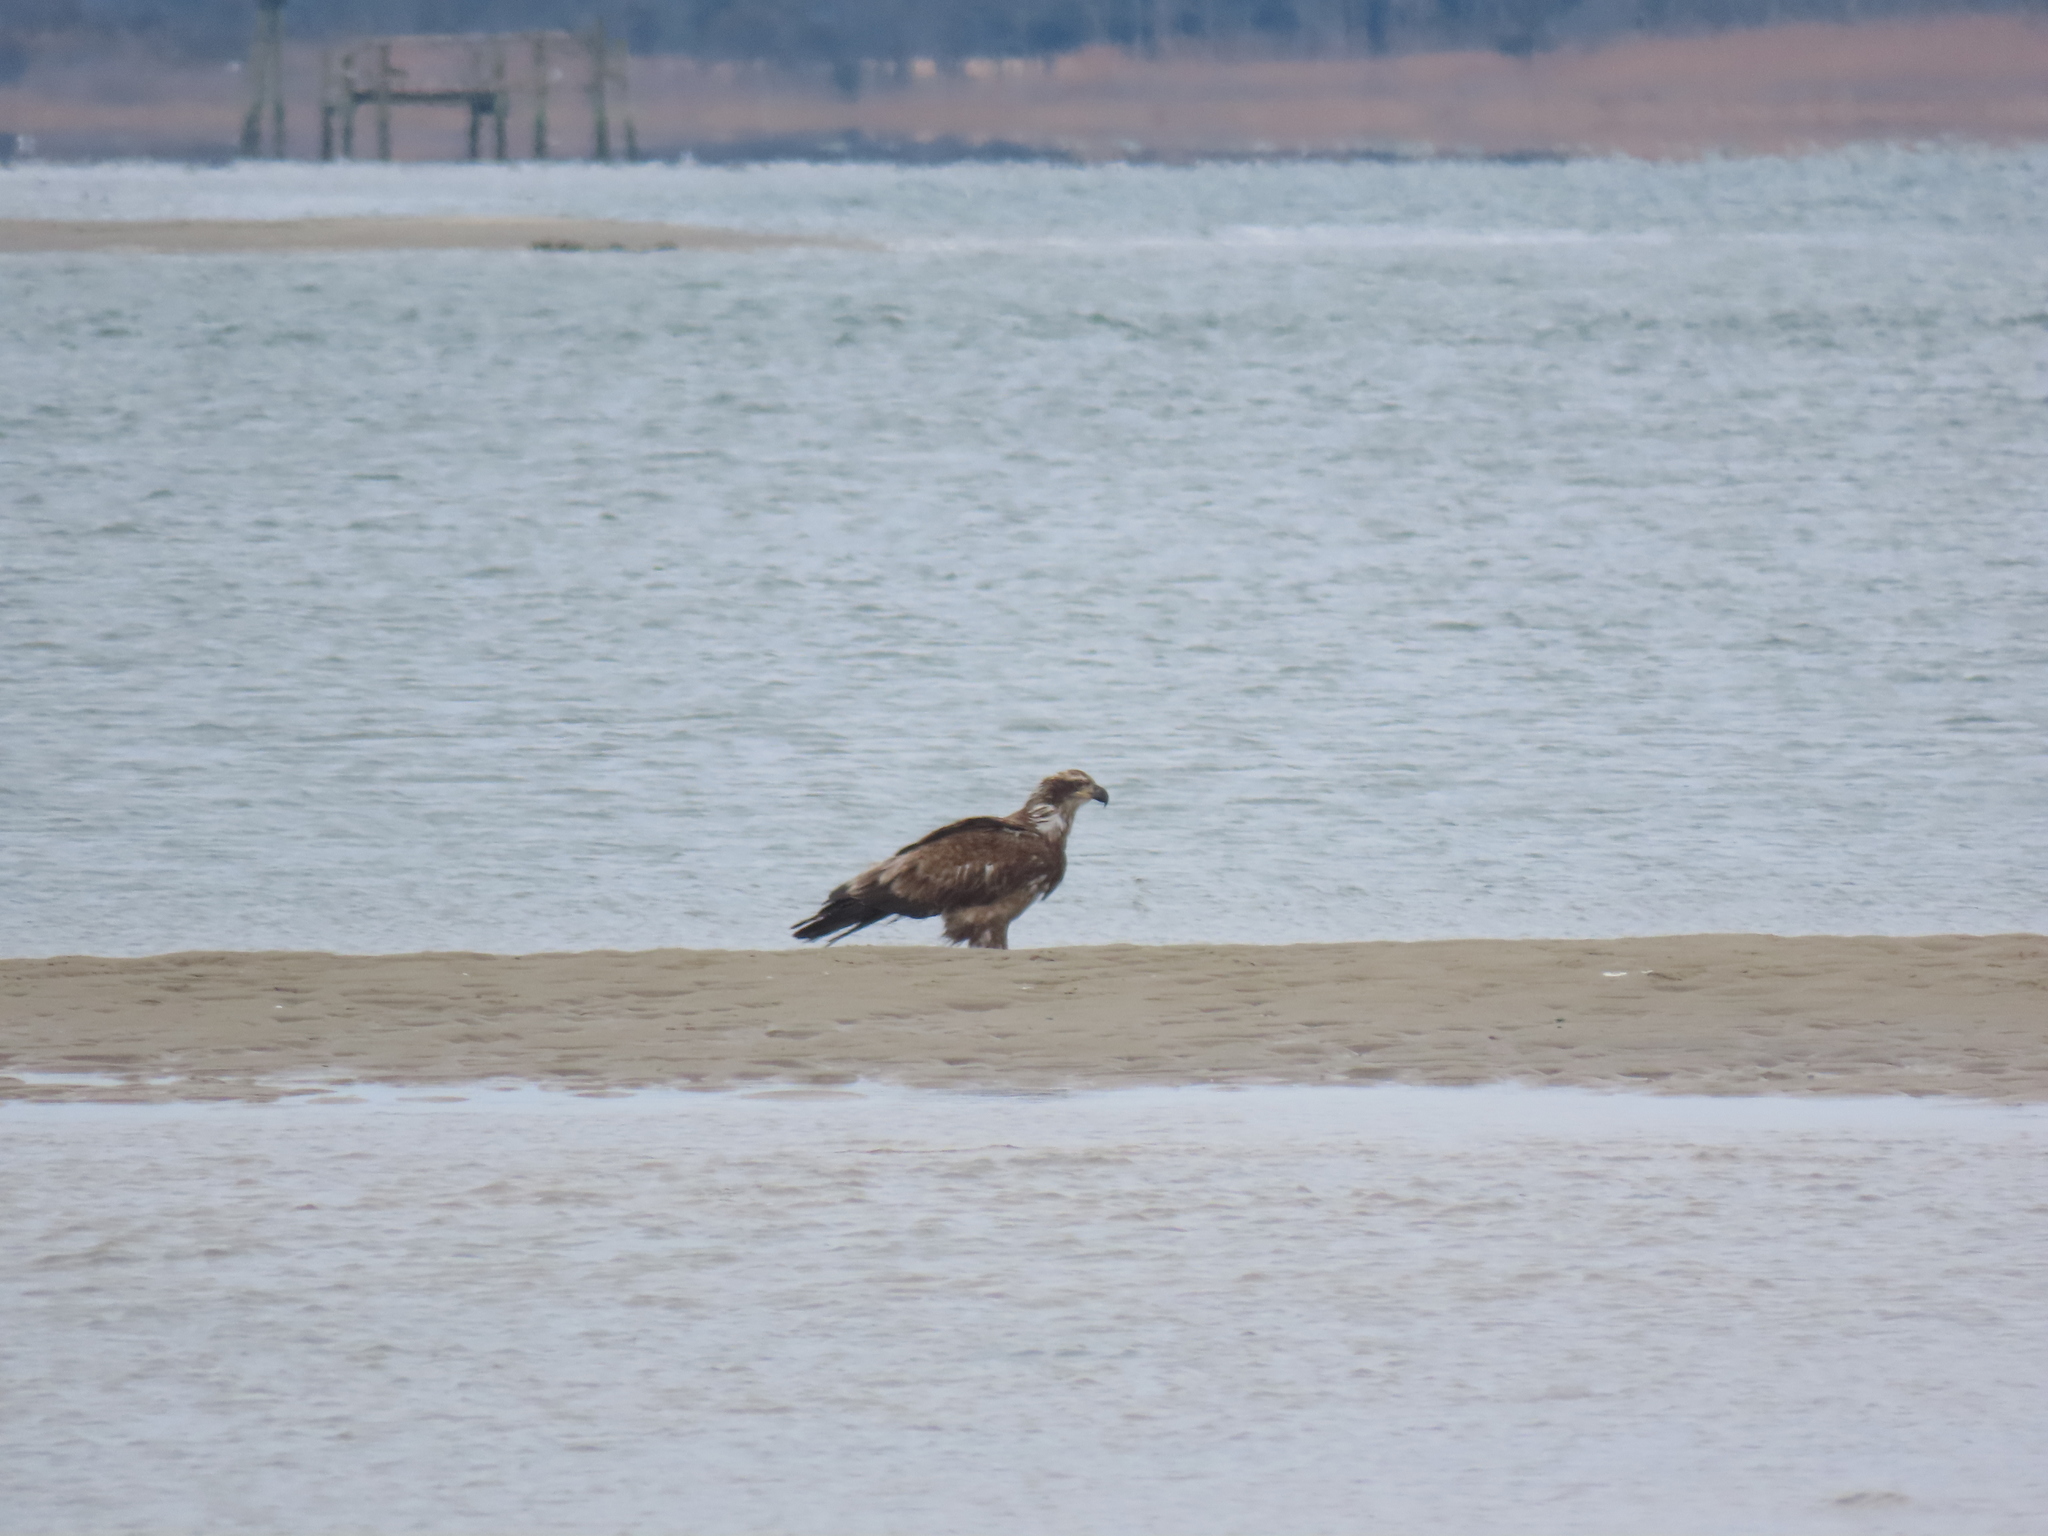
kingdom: Animalia
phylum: Chordata
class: Aves
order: Accipitriformes
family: Accipitridae
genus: Haliaeetus
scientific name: Haliaeetus leucocephalus
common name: Bald eagle
